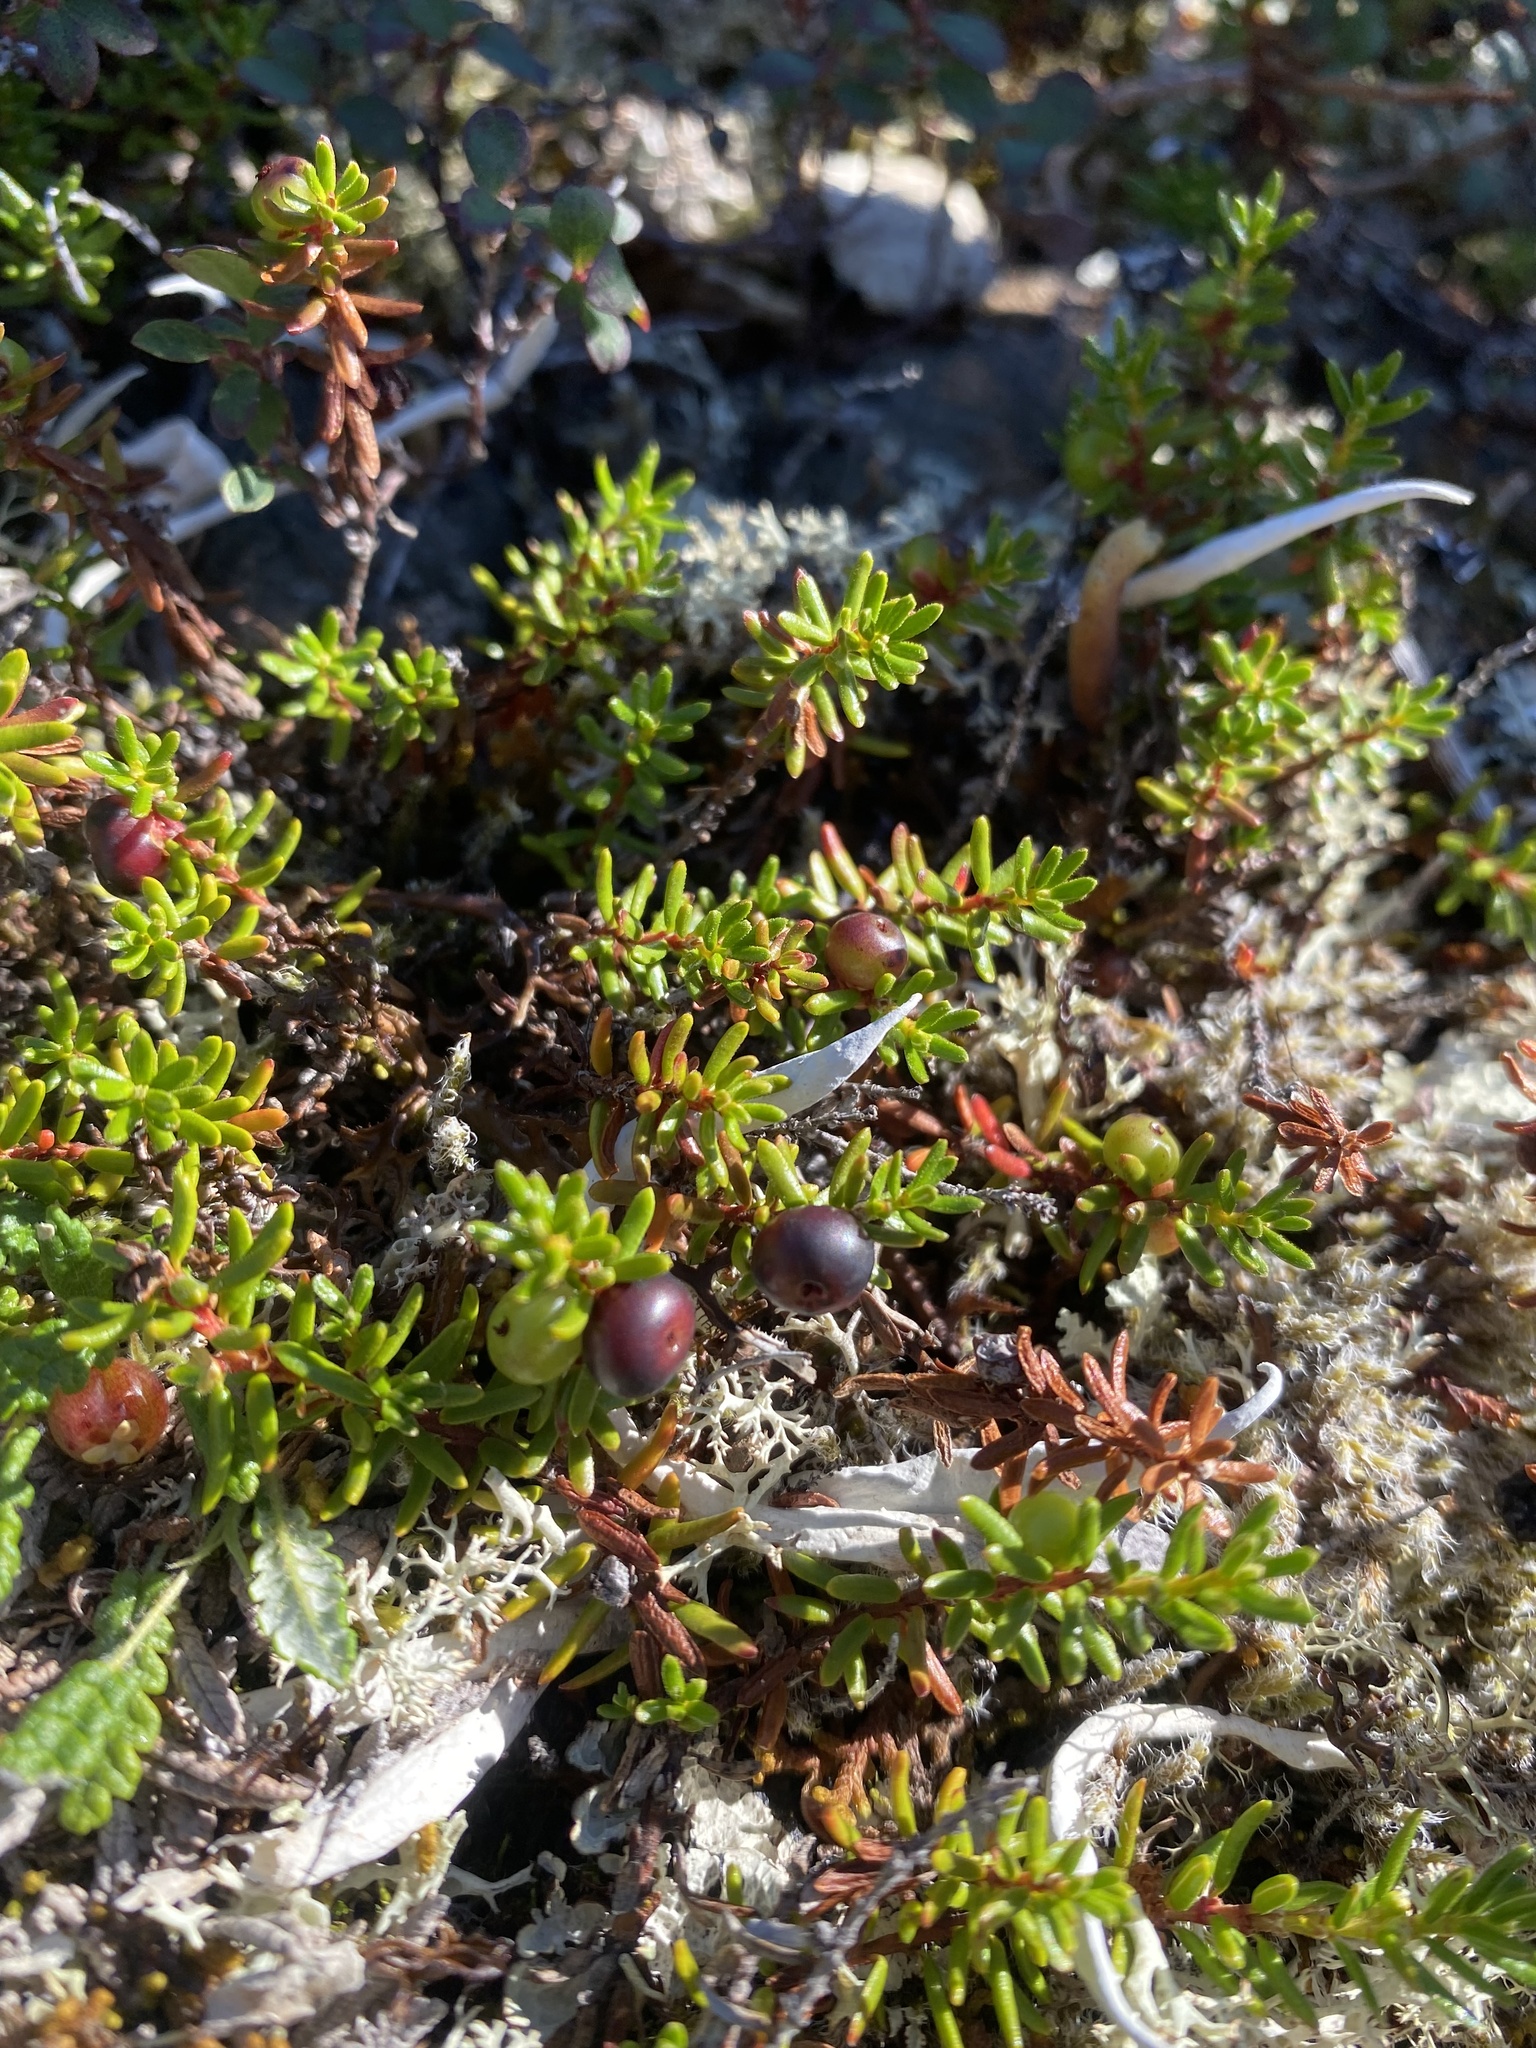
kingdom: Plantae
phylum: Tracheophyta
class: Magnoliopsida
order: Ericales
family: Ericaceae
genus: Empetrum
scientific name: Empetrum nigrum
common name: Black crowberry
